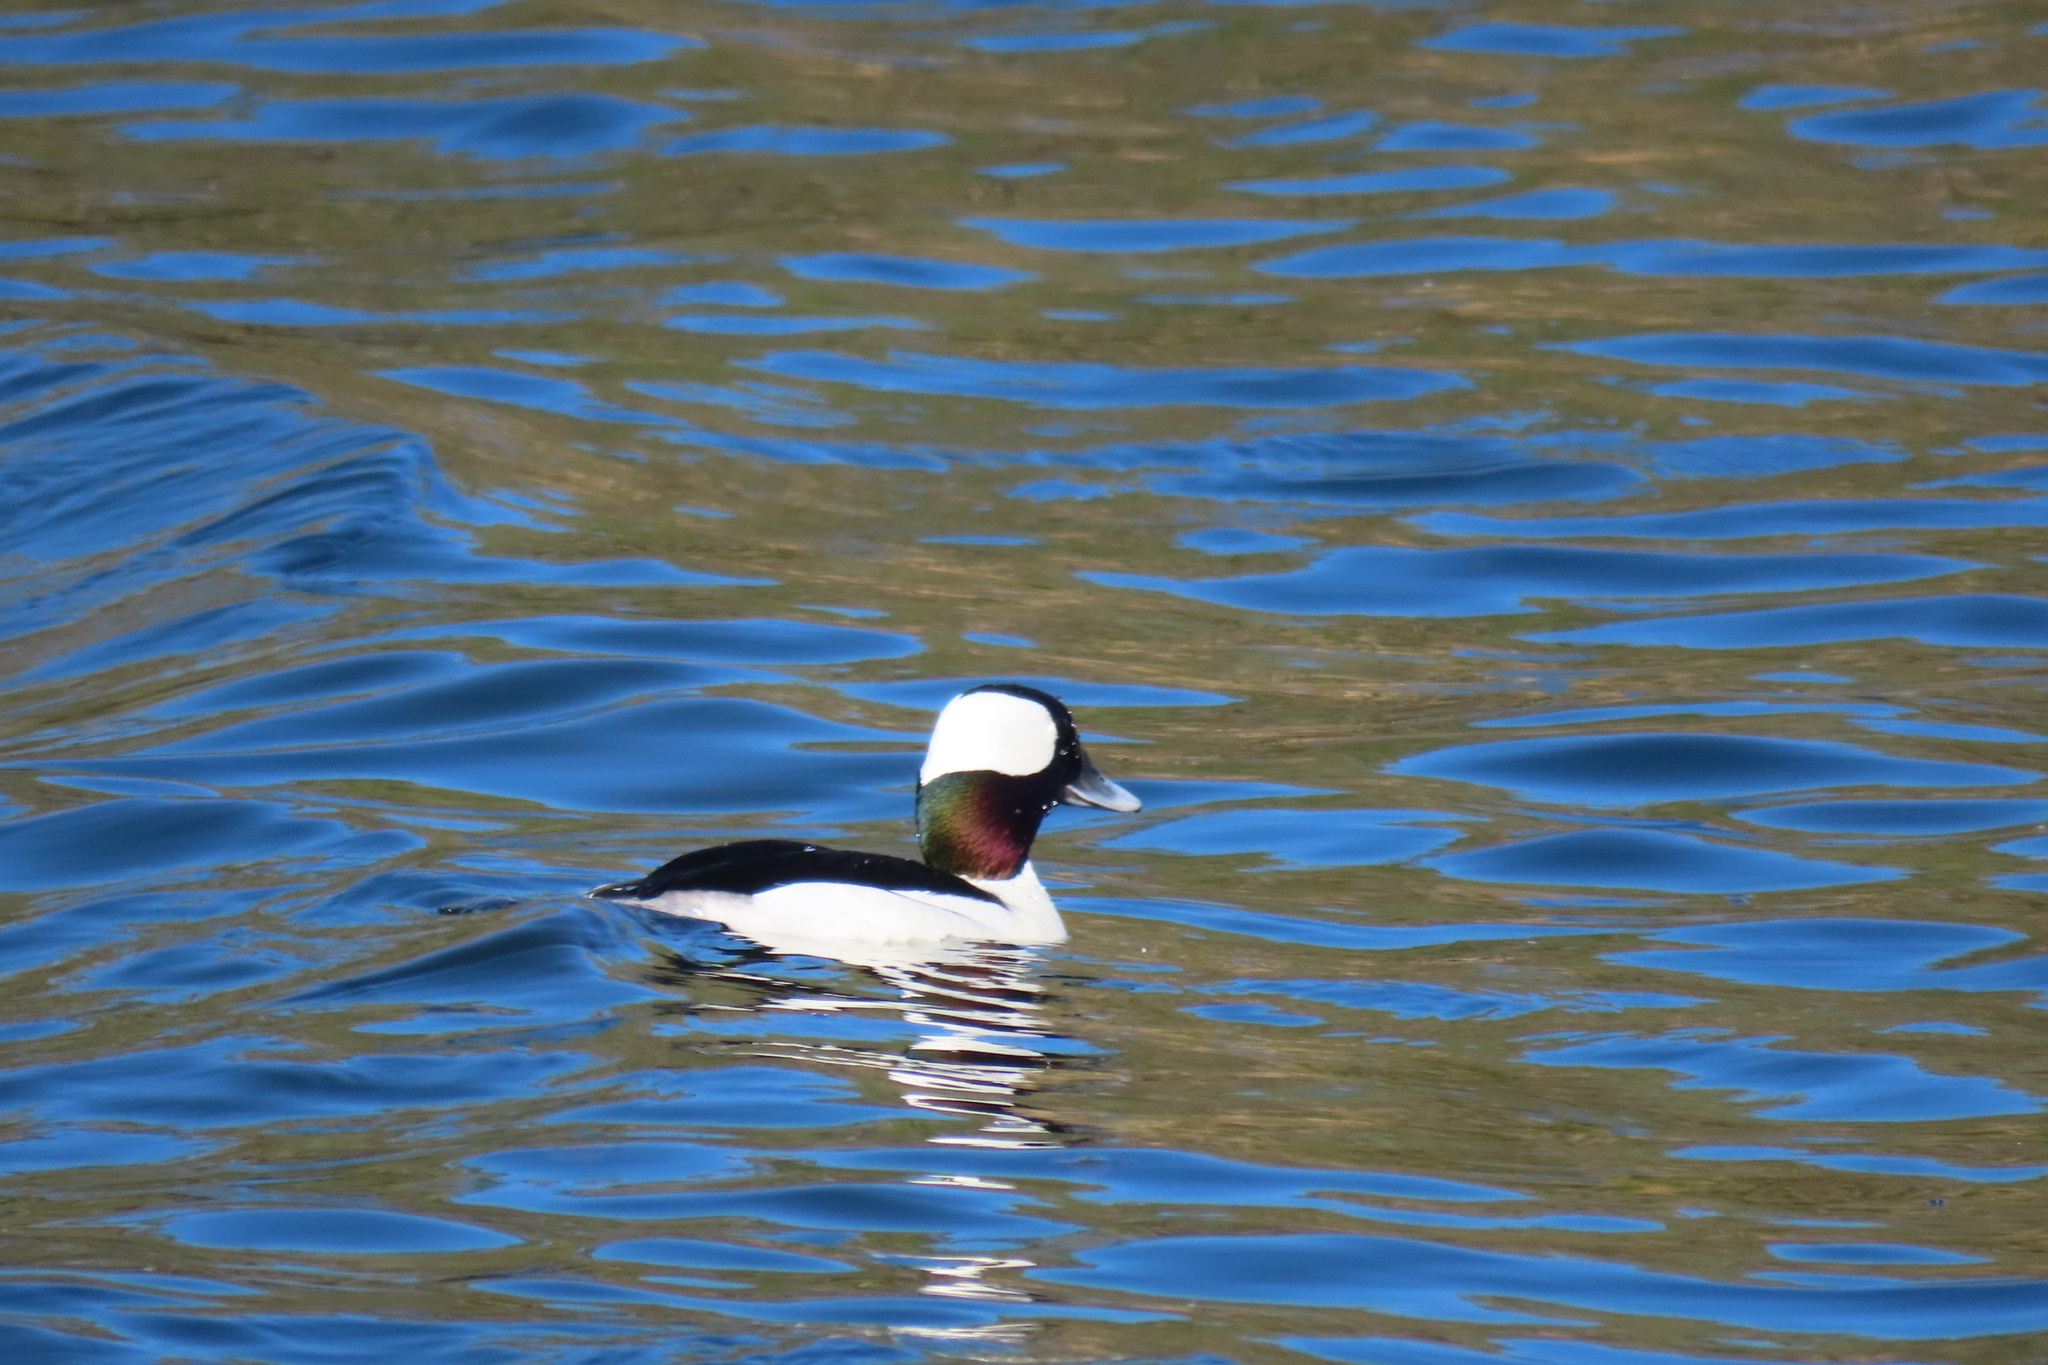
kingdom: Animalia
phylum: Chordata
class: Aves
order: Anseriformes
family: Anatidae
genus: Bucephala
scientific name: Bucephala albeola
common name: Bufflehead
